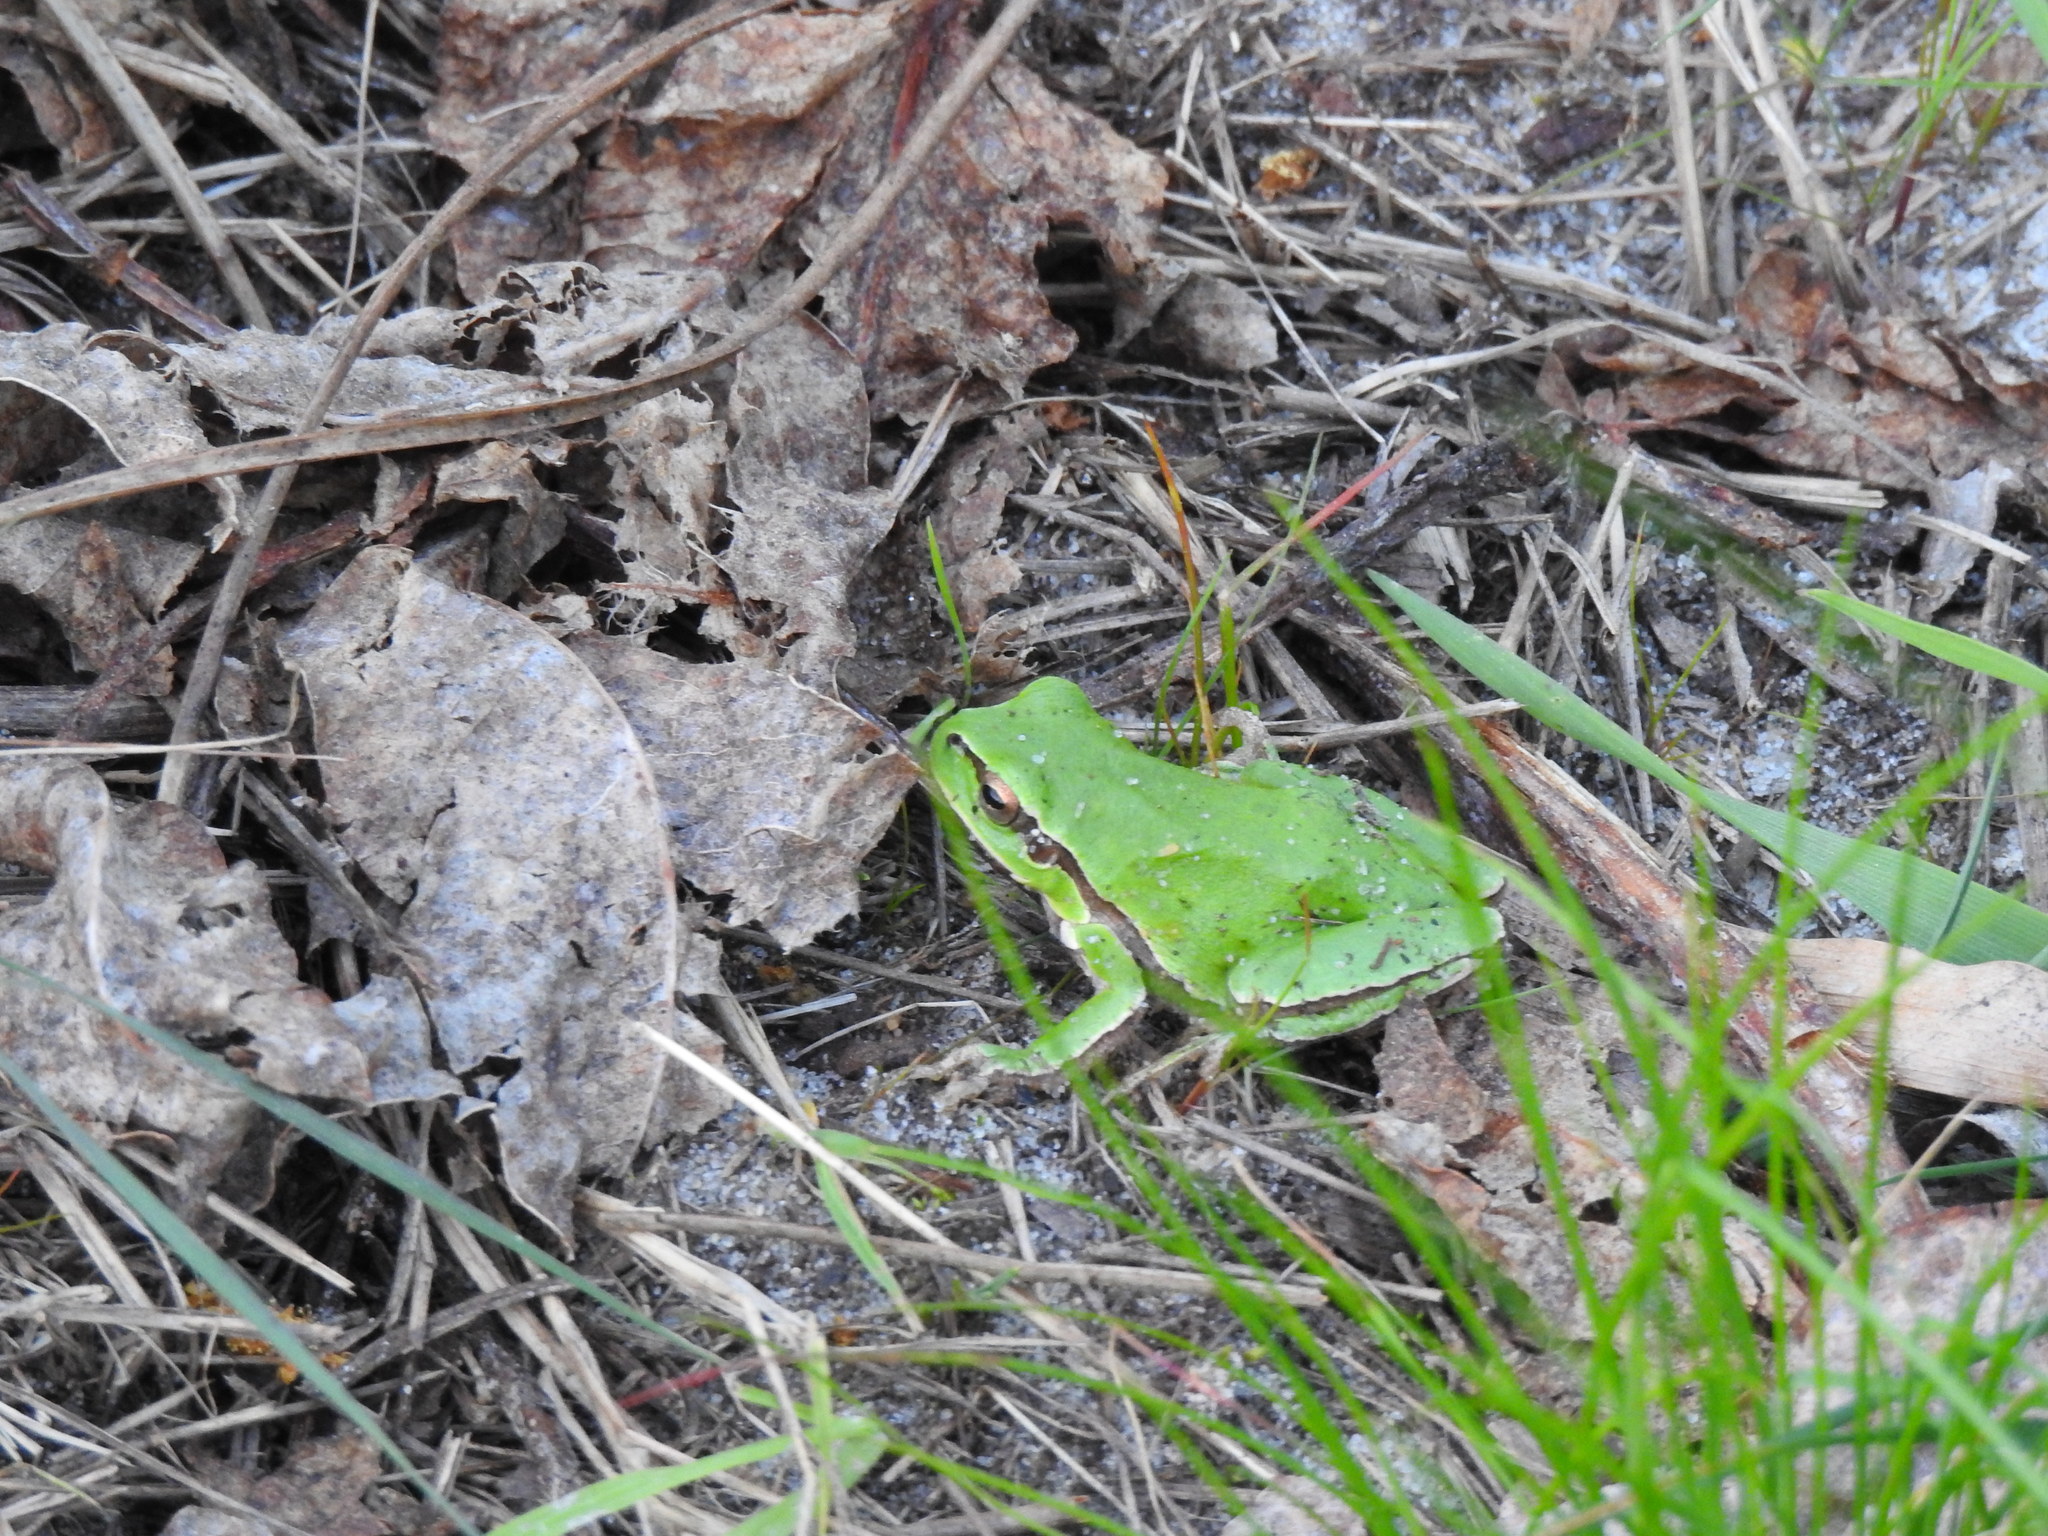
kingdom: Animalia
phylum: Chordata
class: Amphibia
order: Anura
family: Hylidae
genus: Hyla
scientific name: Hyla molleri
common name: Iberian tree frog
